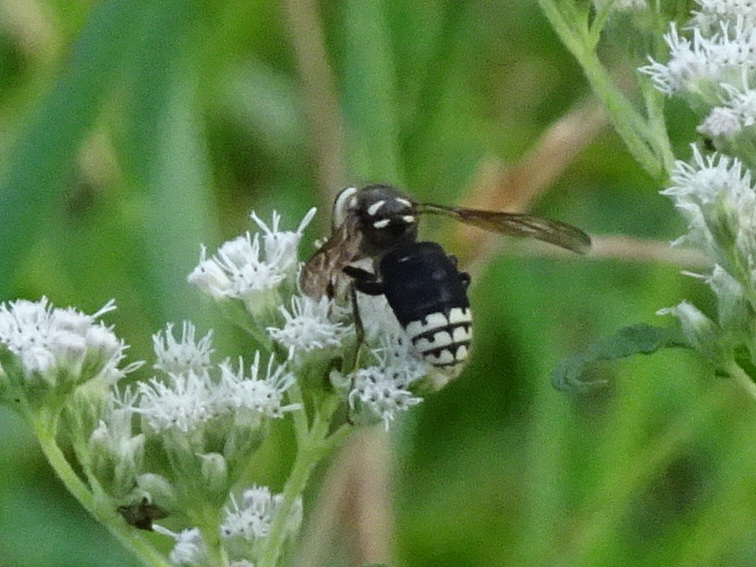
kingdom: Animalia
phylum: Arthropoda
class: Insecta
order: Hymenoptera
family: Vespidae
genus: Dolichovespula
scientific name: Dolichovespula maculata
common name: Bald-faced hornet
